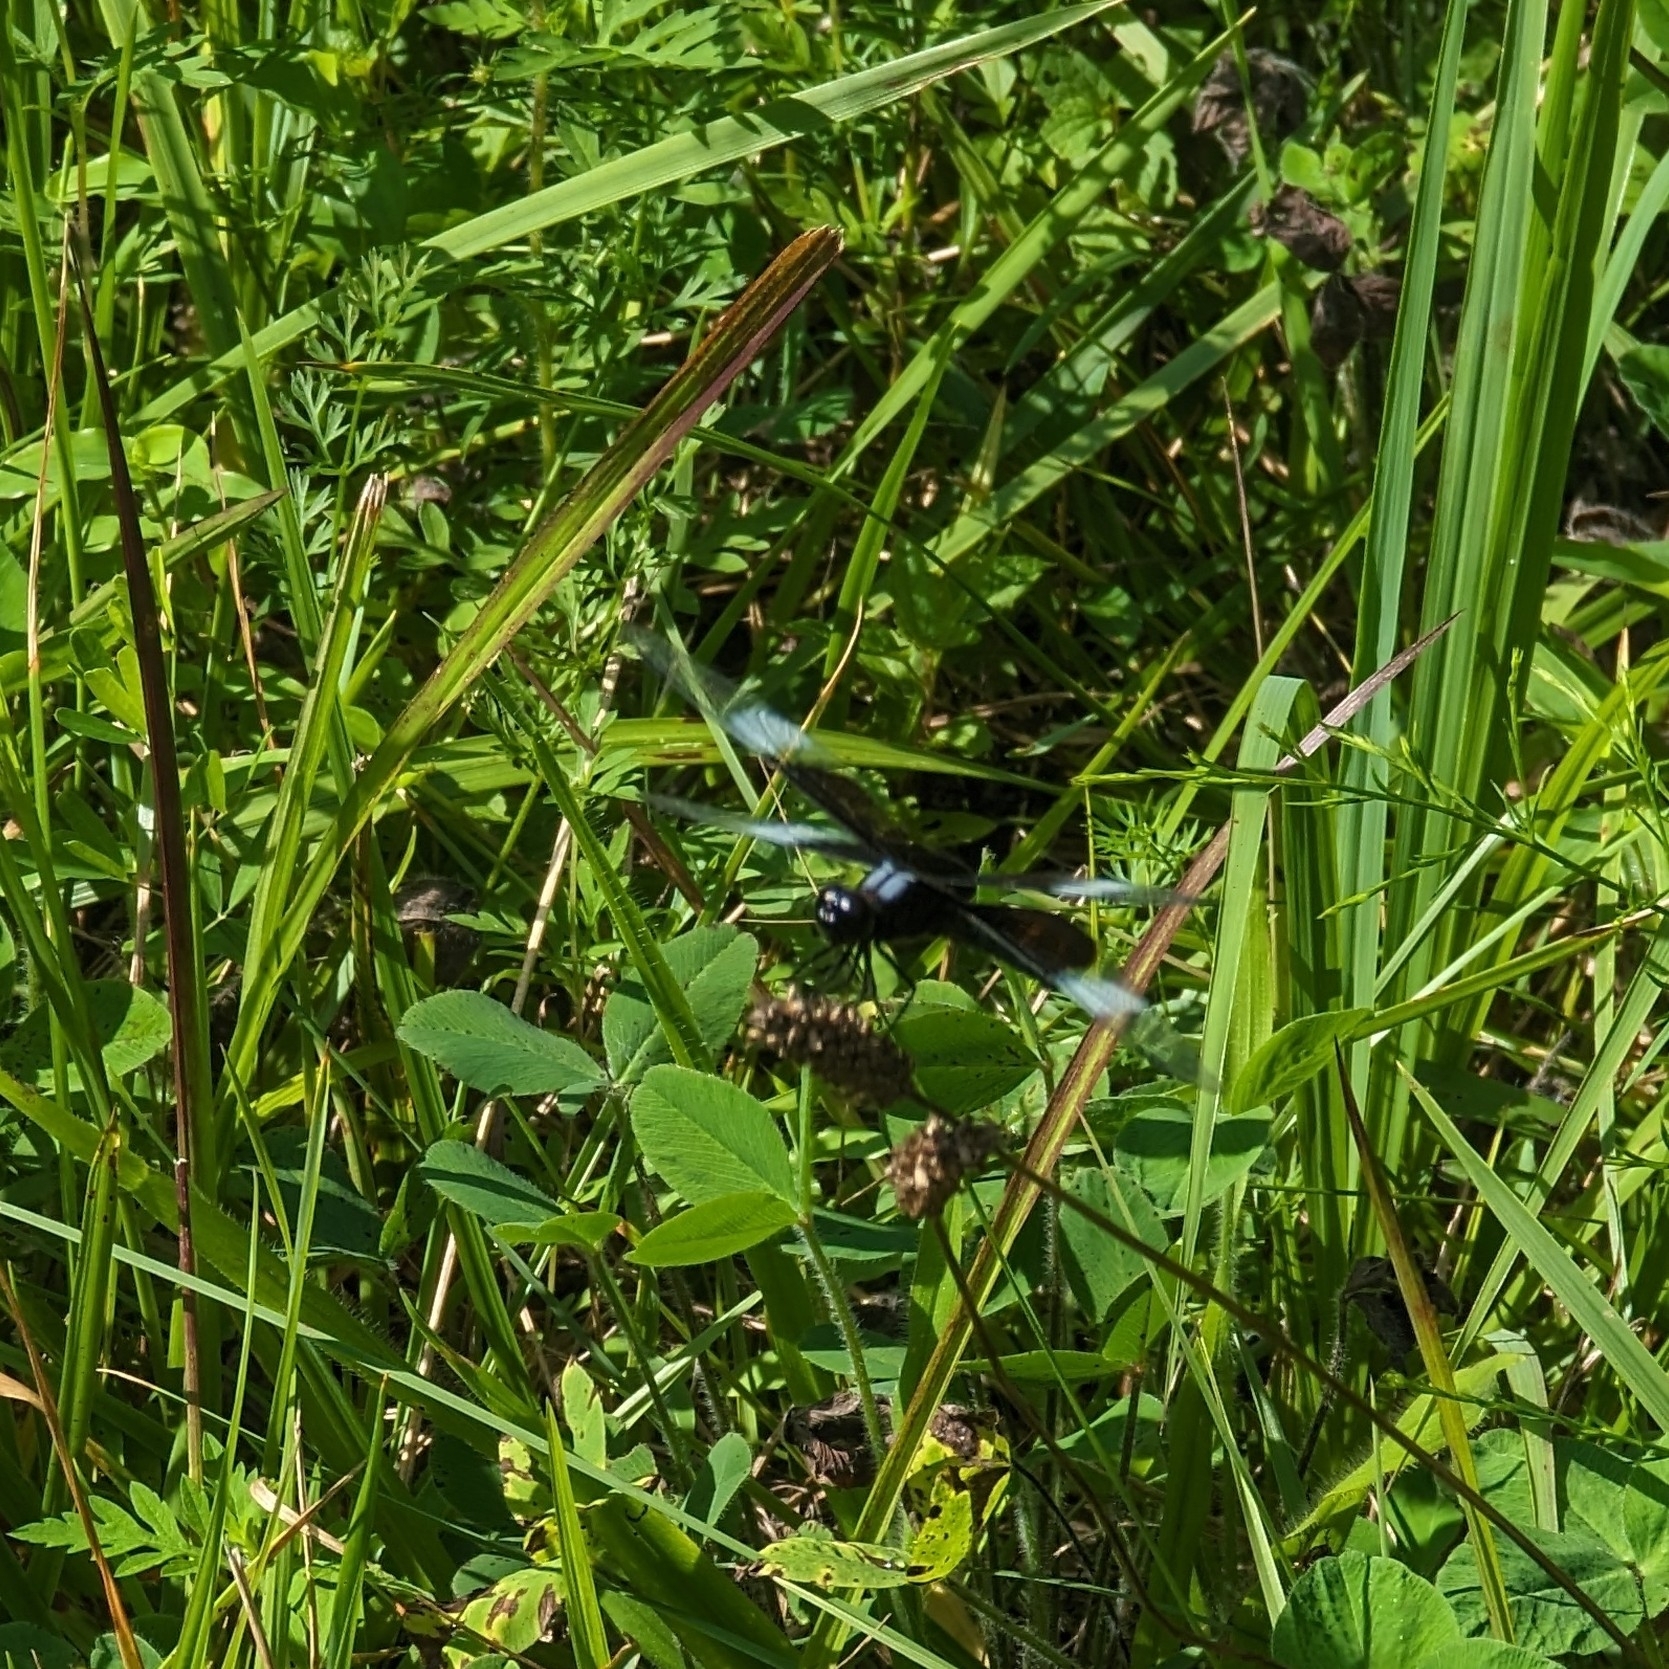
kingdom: Animalia
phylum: Arthropoda
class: Insecta
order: Odonata
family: Libellulidae
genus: Libellula
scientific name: Libellula luctuosa
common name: Widow skimmer
